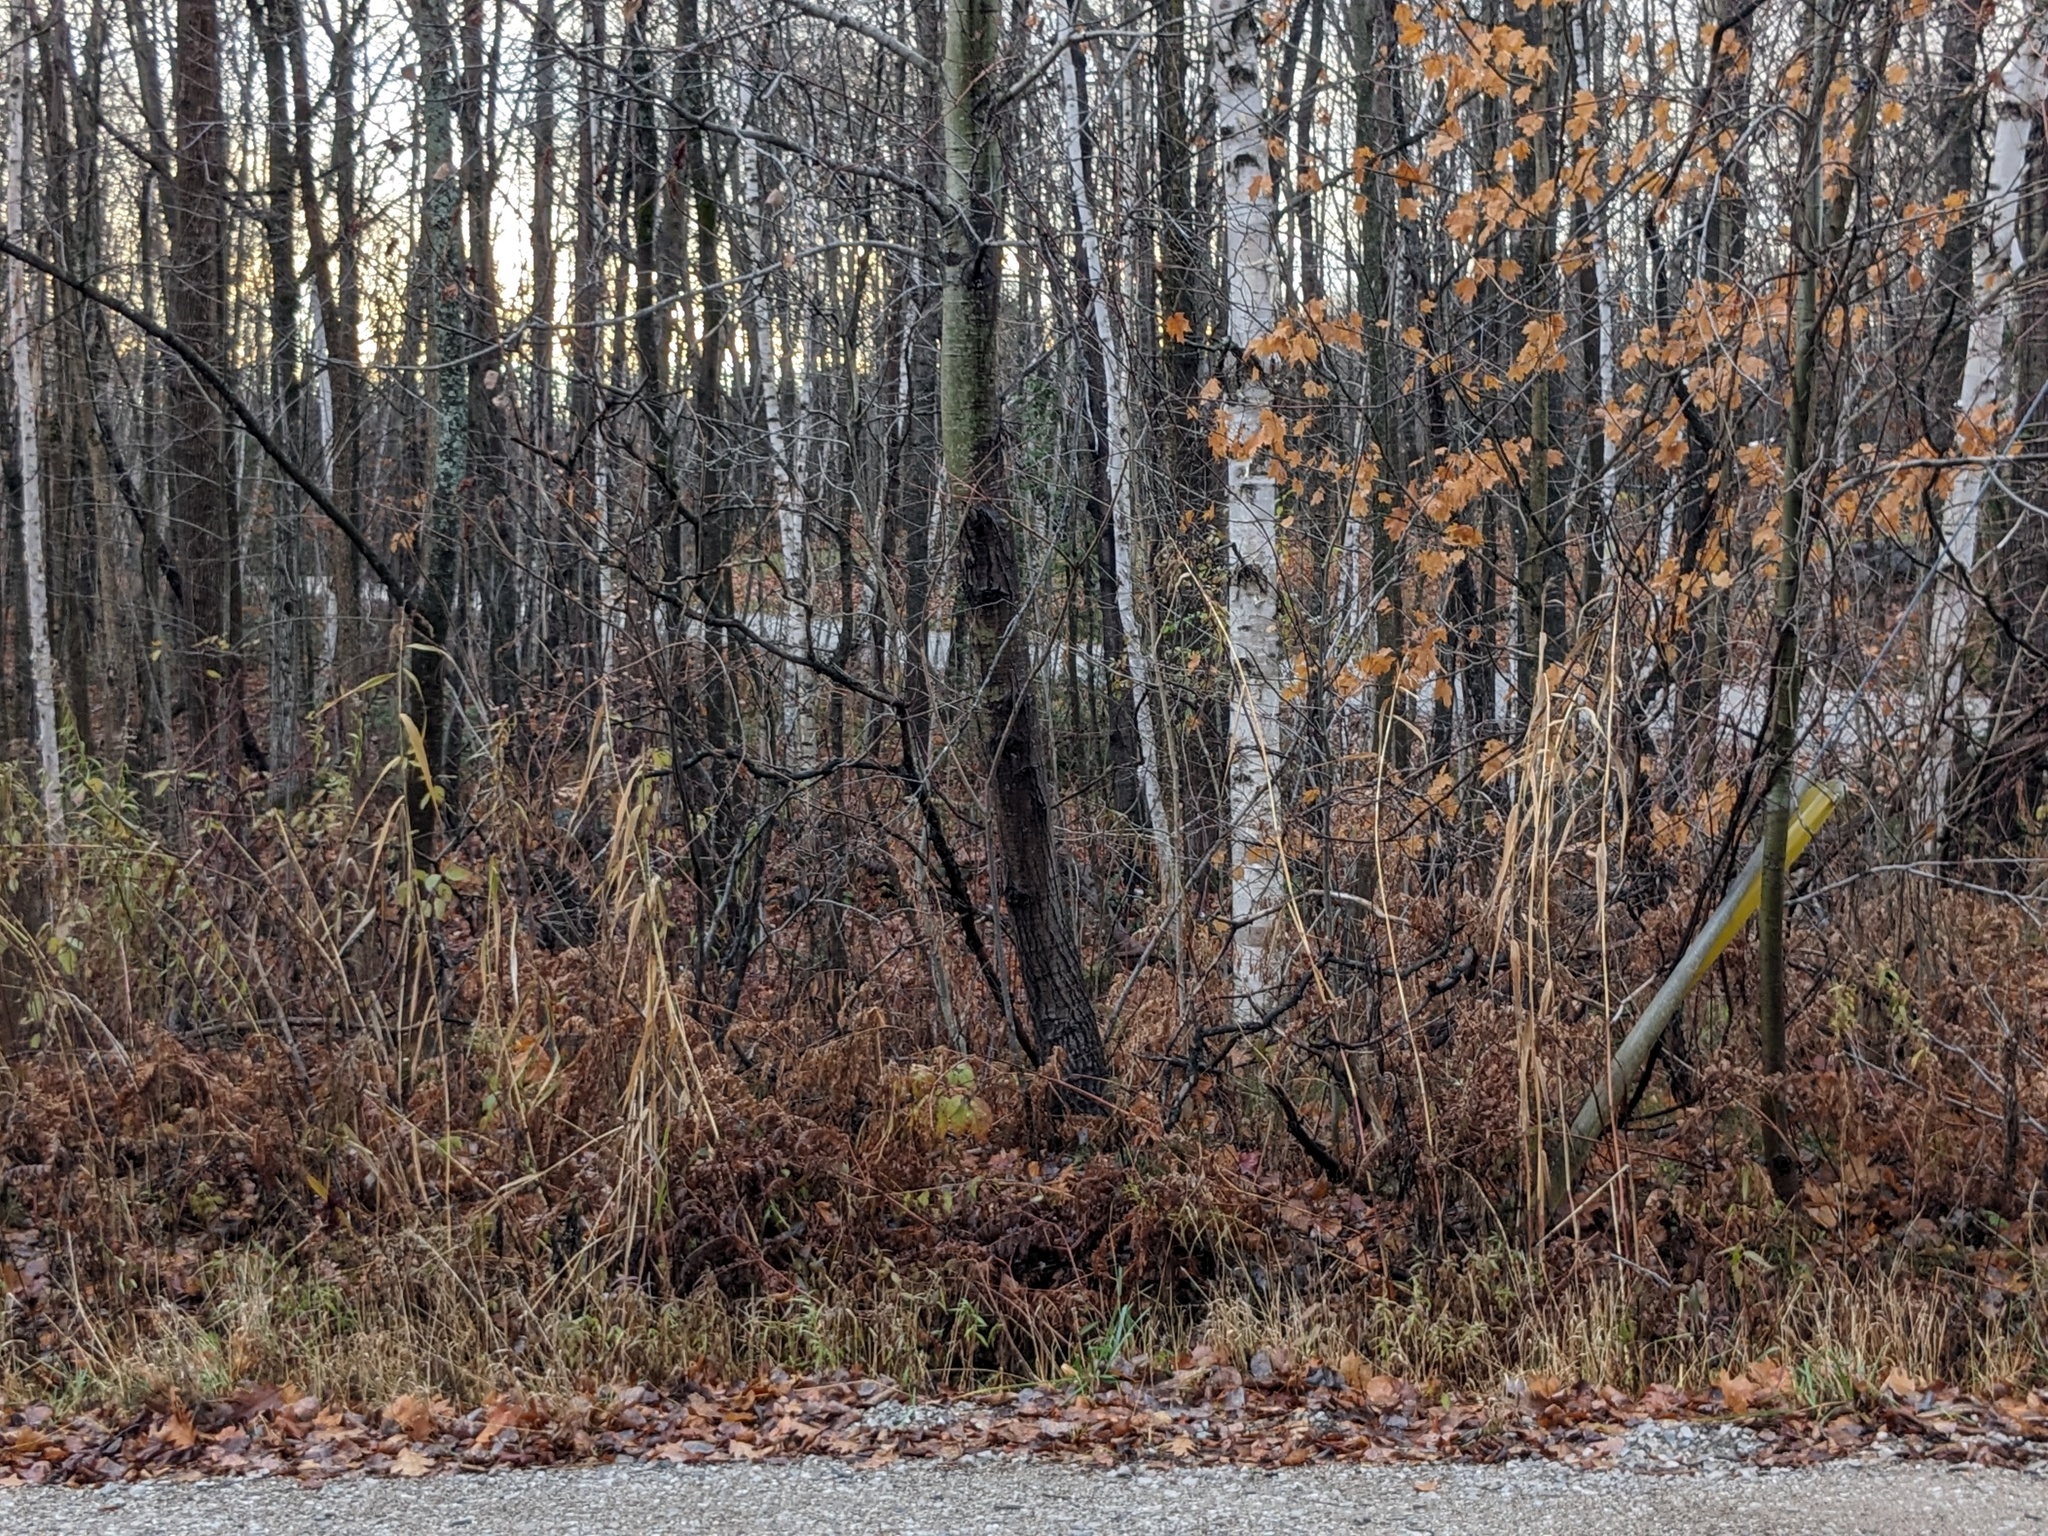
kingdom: Plantae
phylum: Tracheophyta
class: Liliopsida
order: Poales
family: Poaceae
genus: Phragmites
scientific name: Phragmites australis
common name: Common reed
